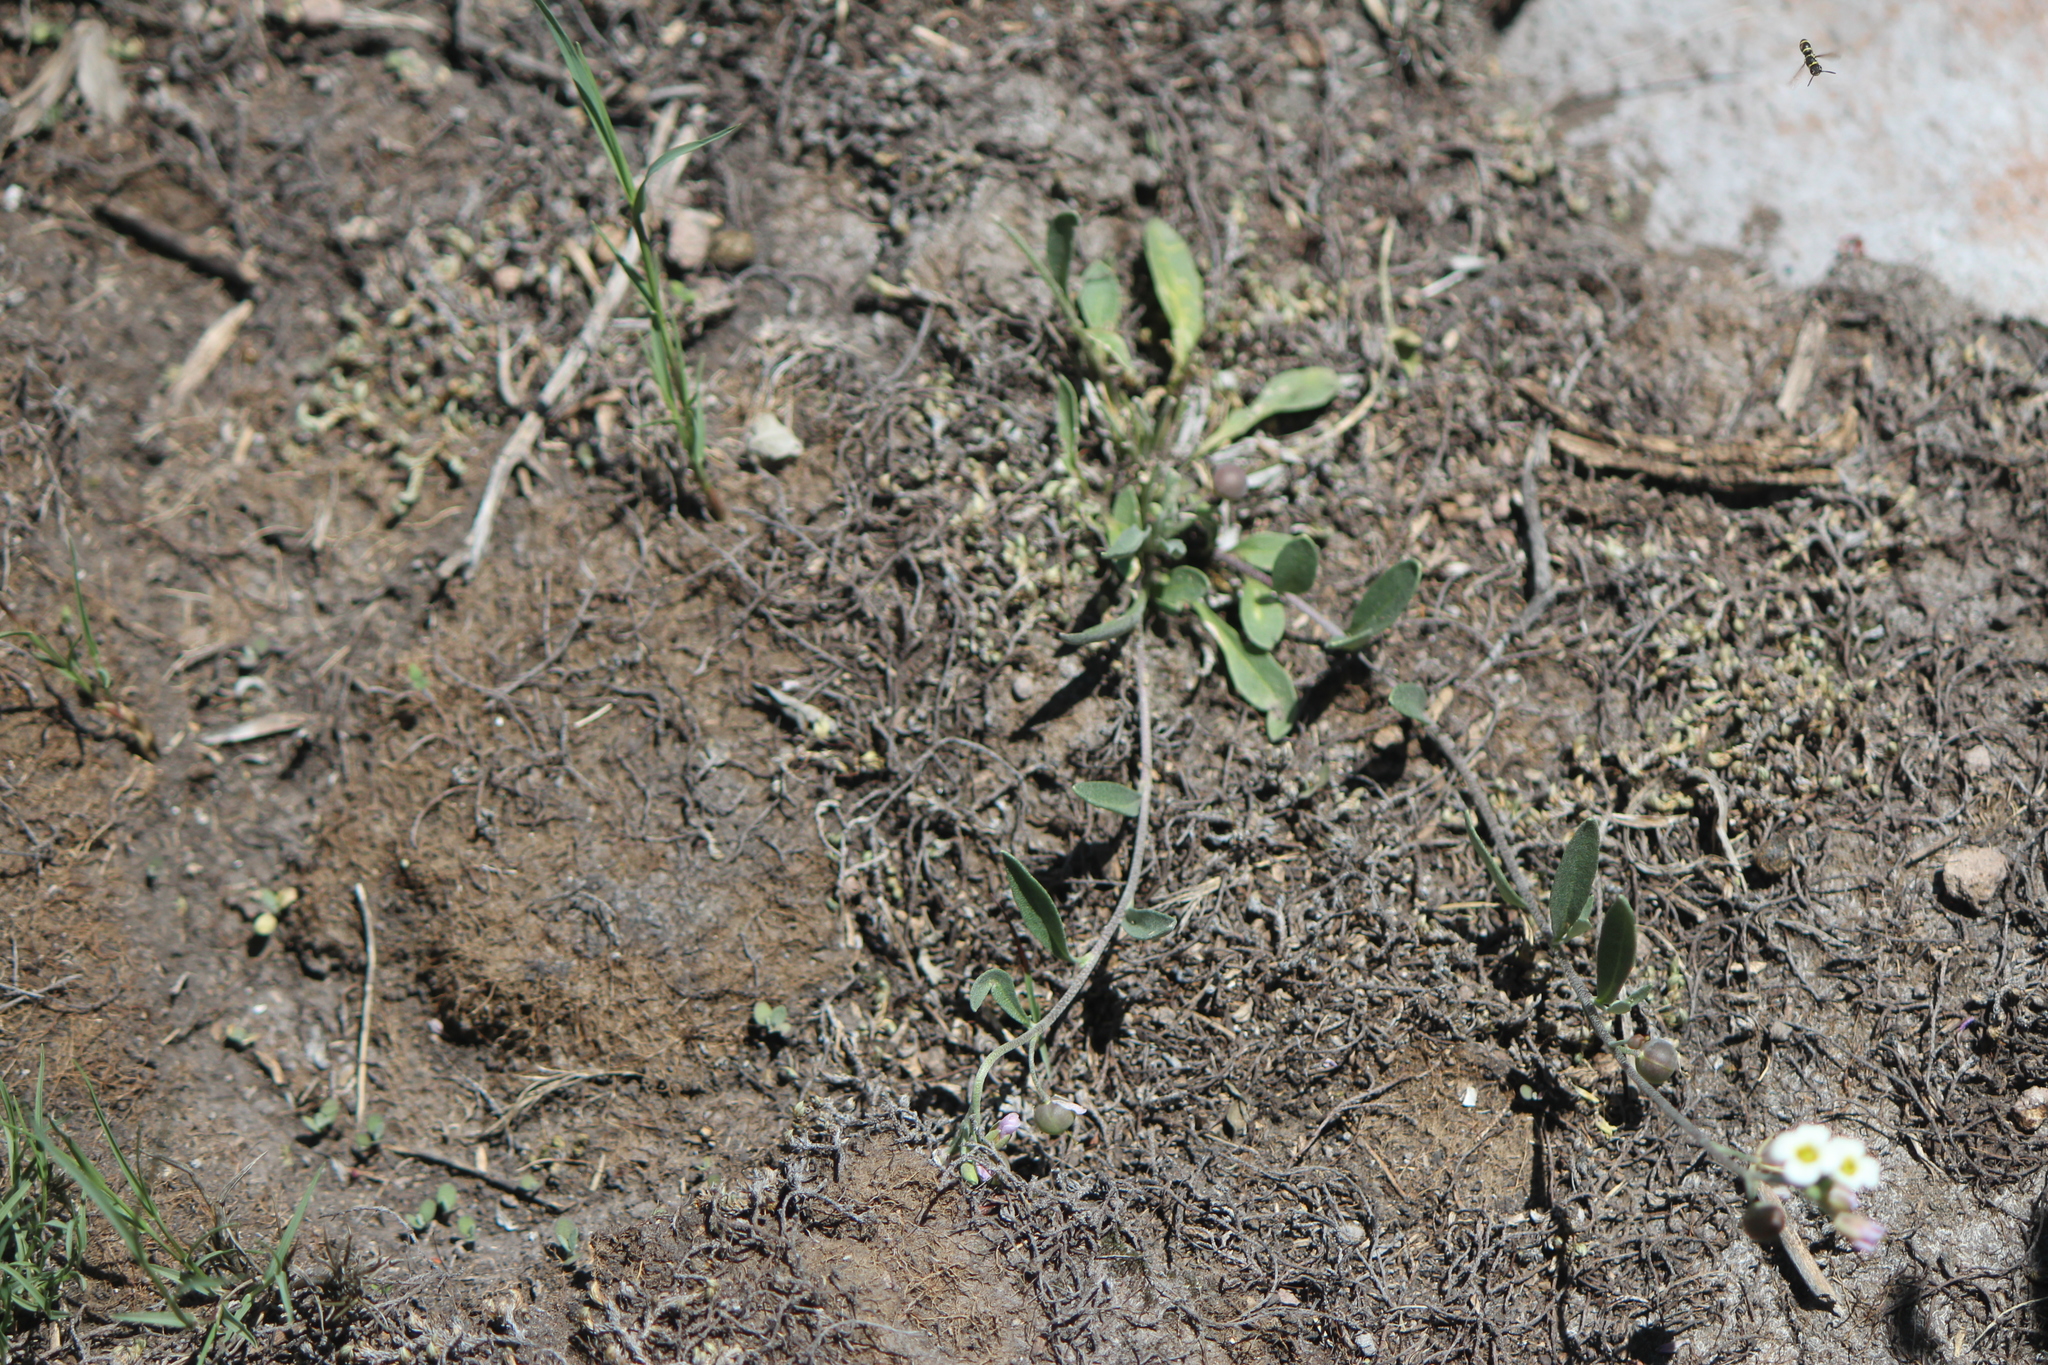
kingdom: Plantae
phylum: Tracheophyta
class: Magnoliopsida
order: Brassicales
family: Brassicaceae
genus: Physaria
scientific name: Physaria schaffneri
